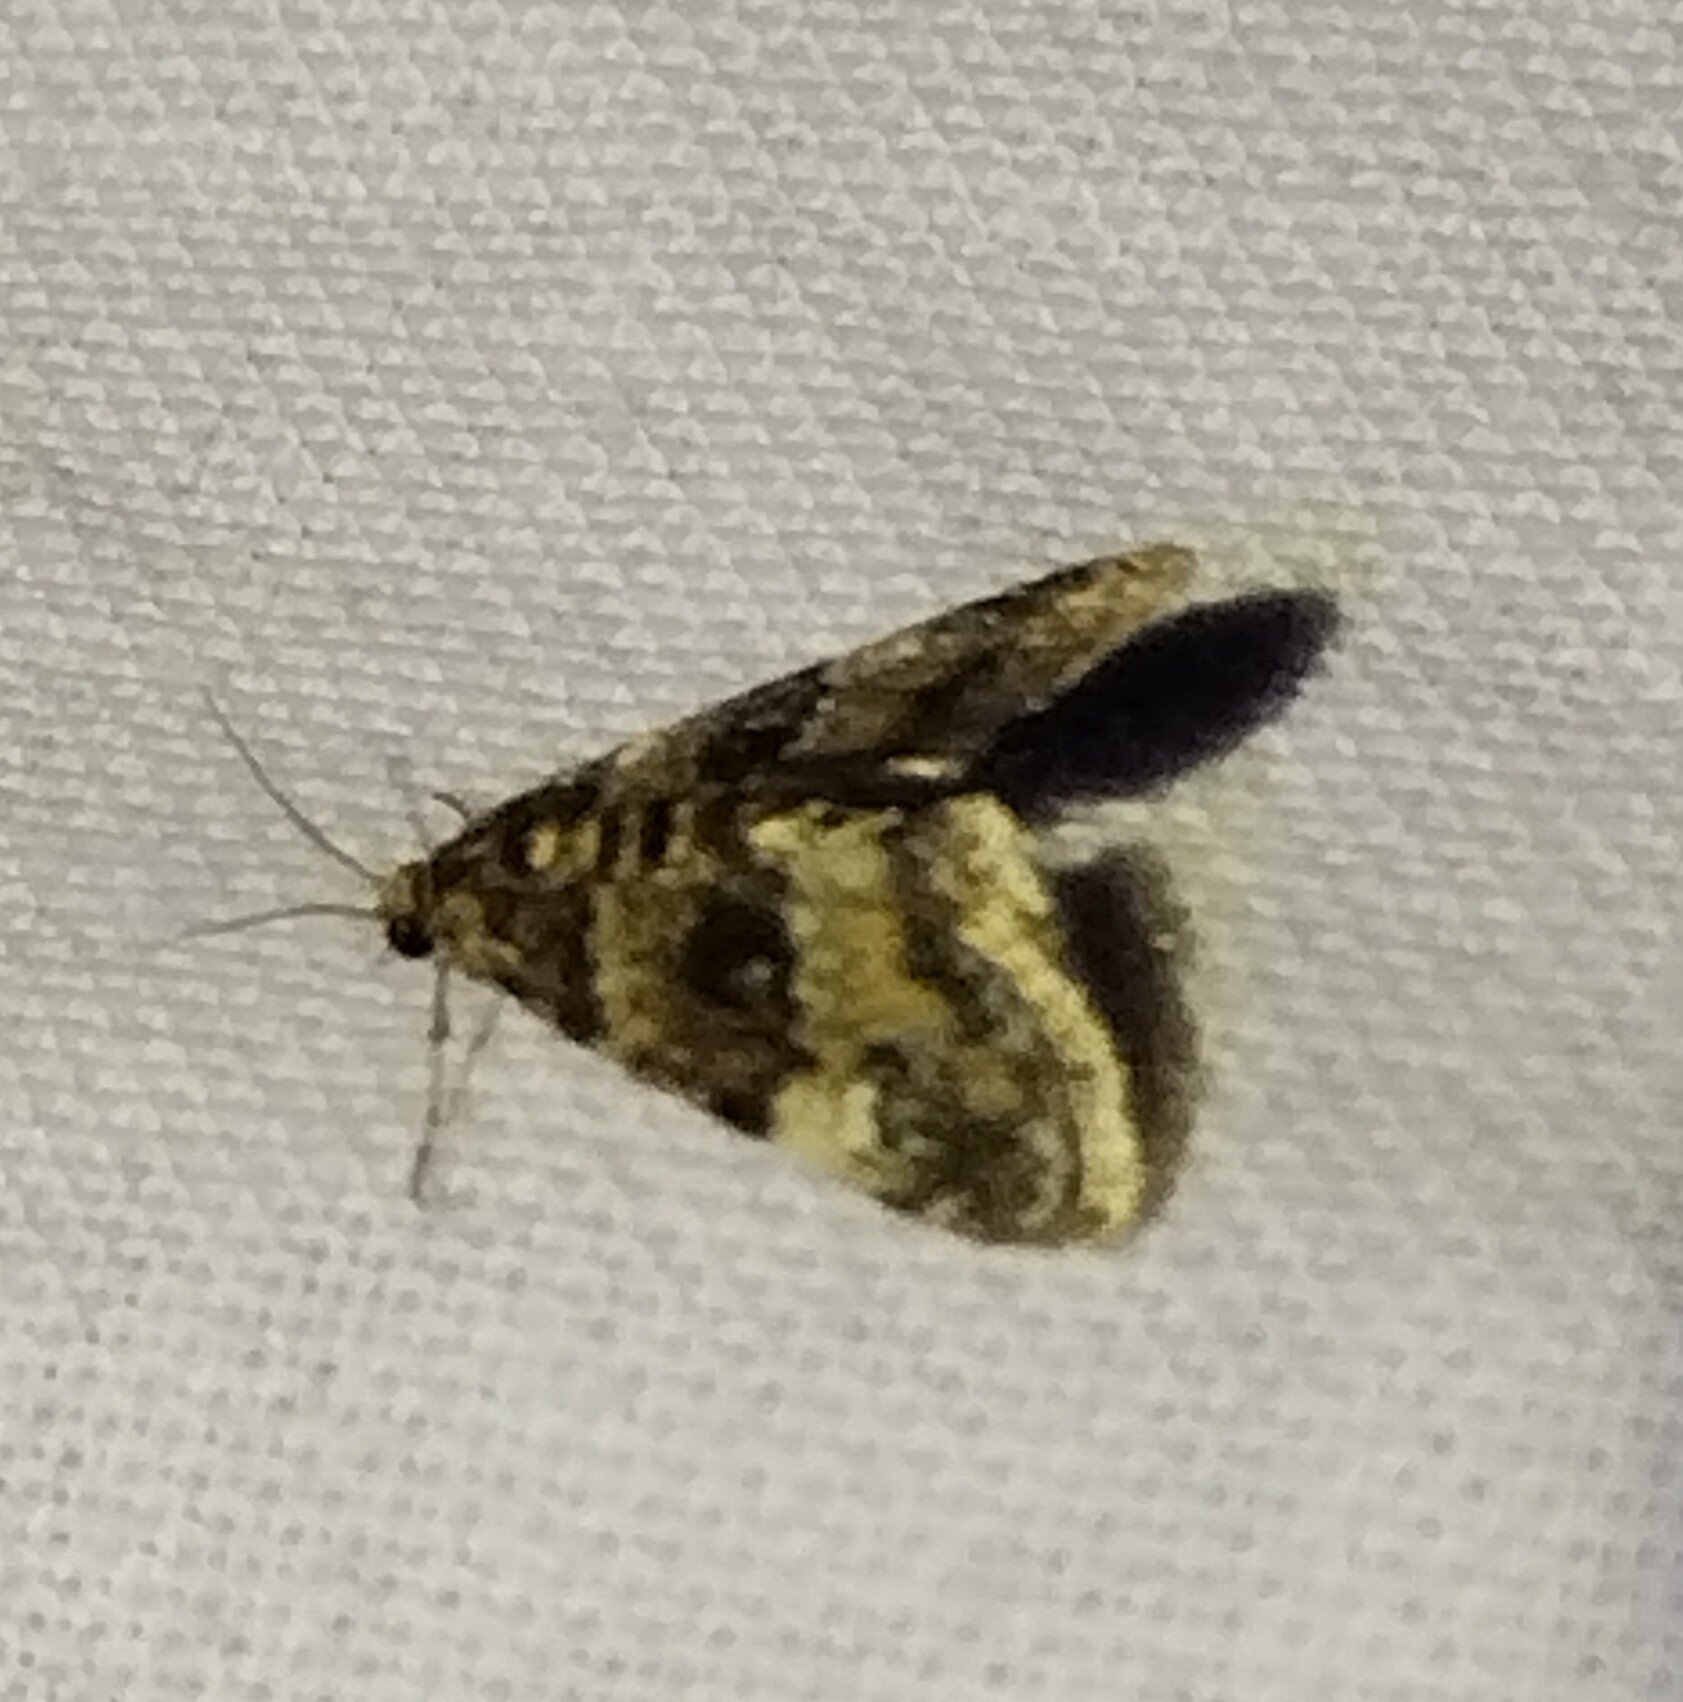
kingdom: Animalia
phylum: Arthropoda
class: Insecta
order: Lepidoptera
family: Crambidae
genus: Elophila
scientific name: Elophila obliteralis
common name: Waterlily leafcutter moth
